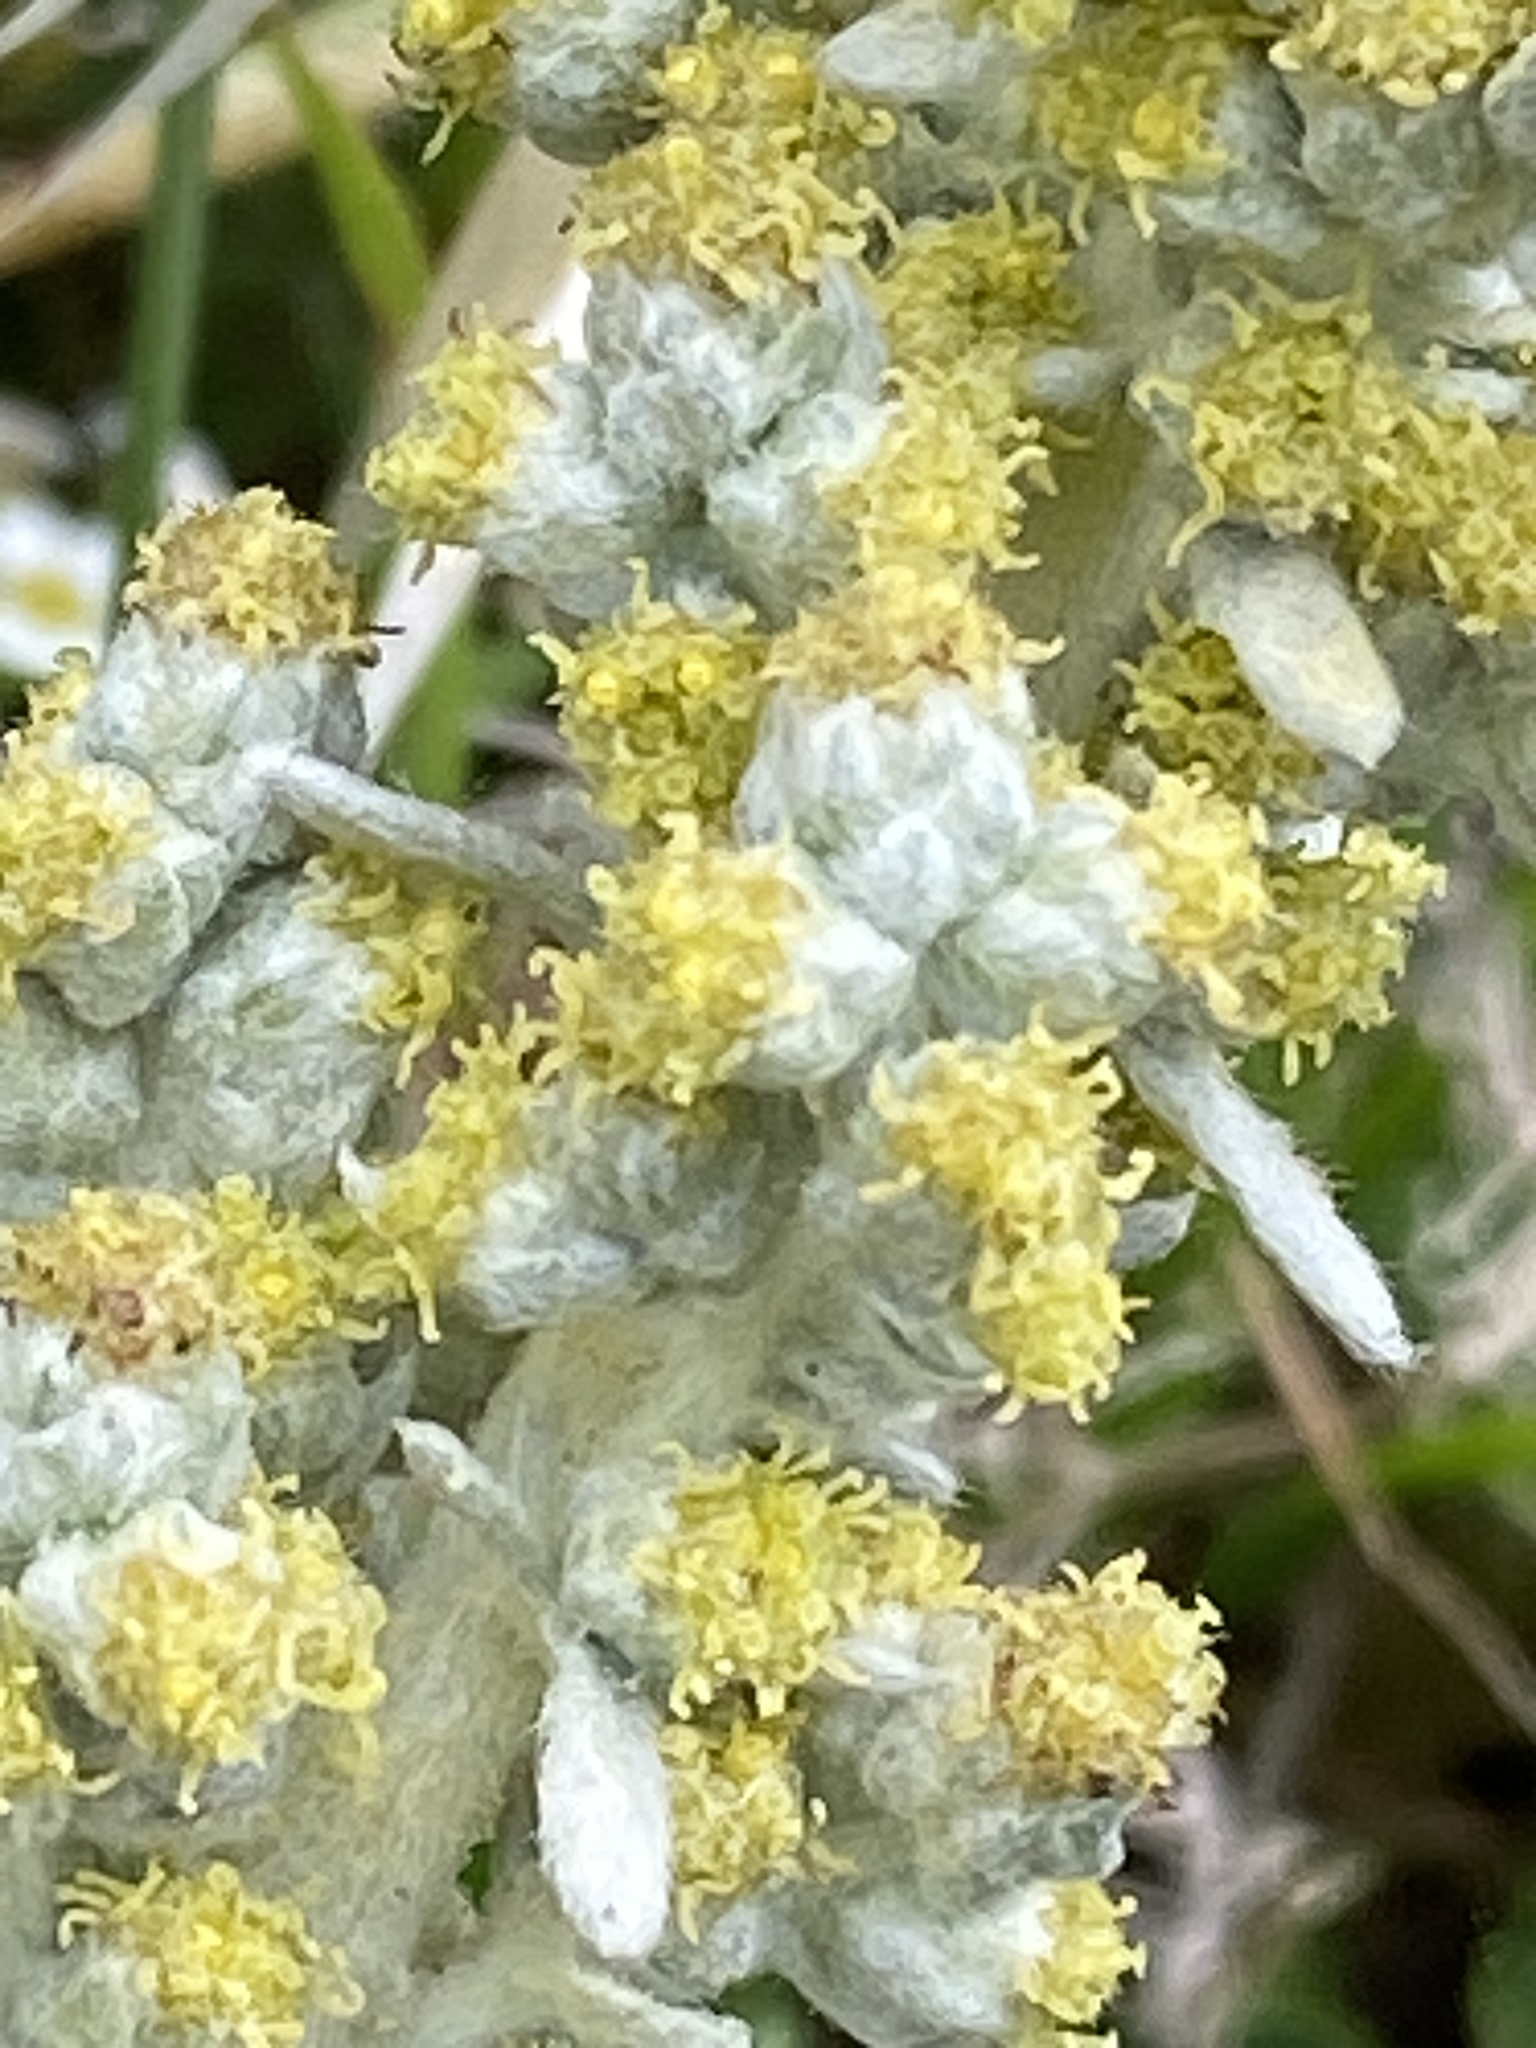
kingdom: Plantae
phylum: Tracheophyta
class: Magnoliopsida
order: Asterales
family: Asteraceae
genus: Artemisia
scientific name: Artemisia pycnocephala
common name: Coastal sagewort
